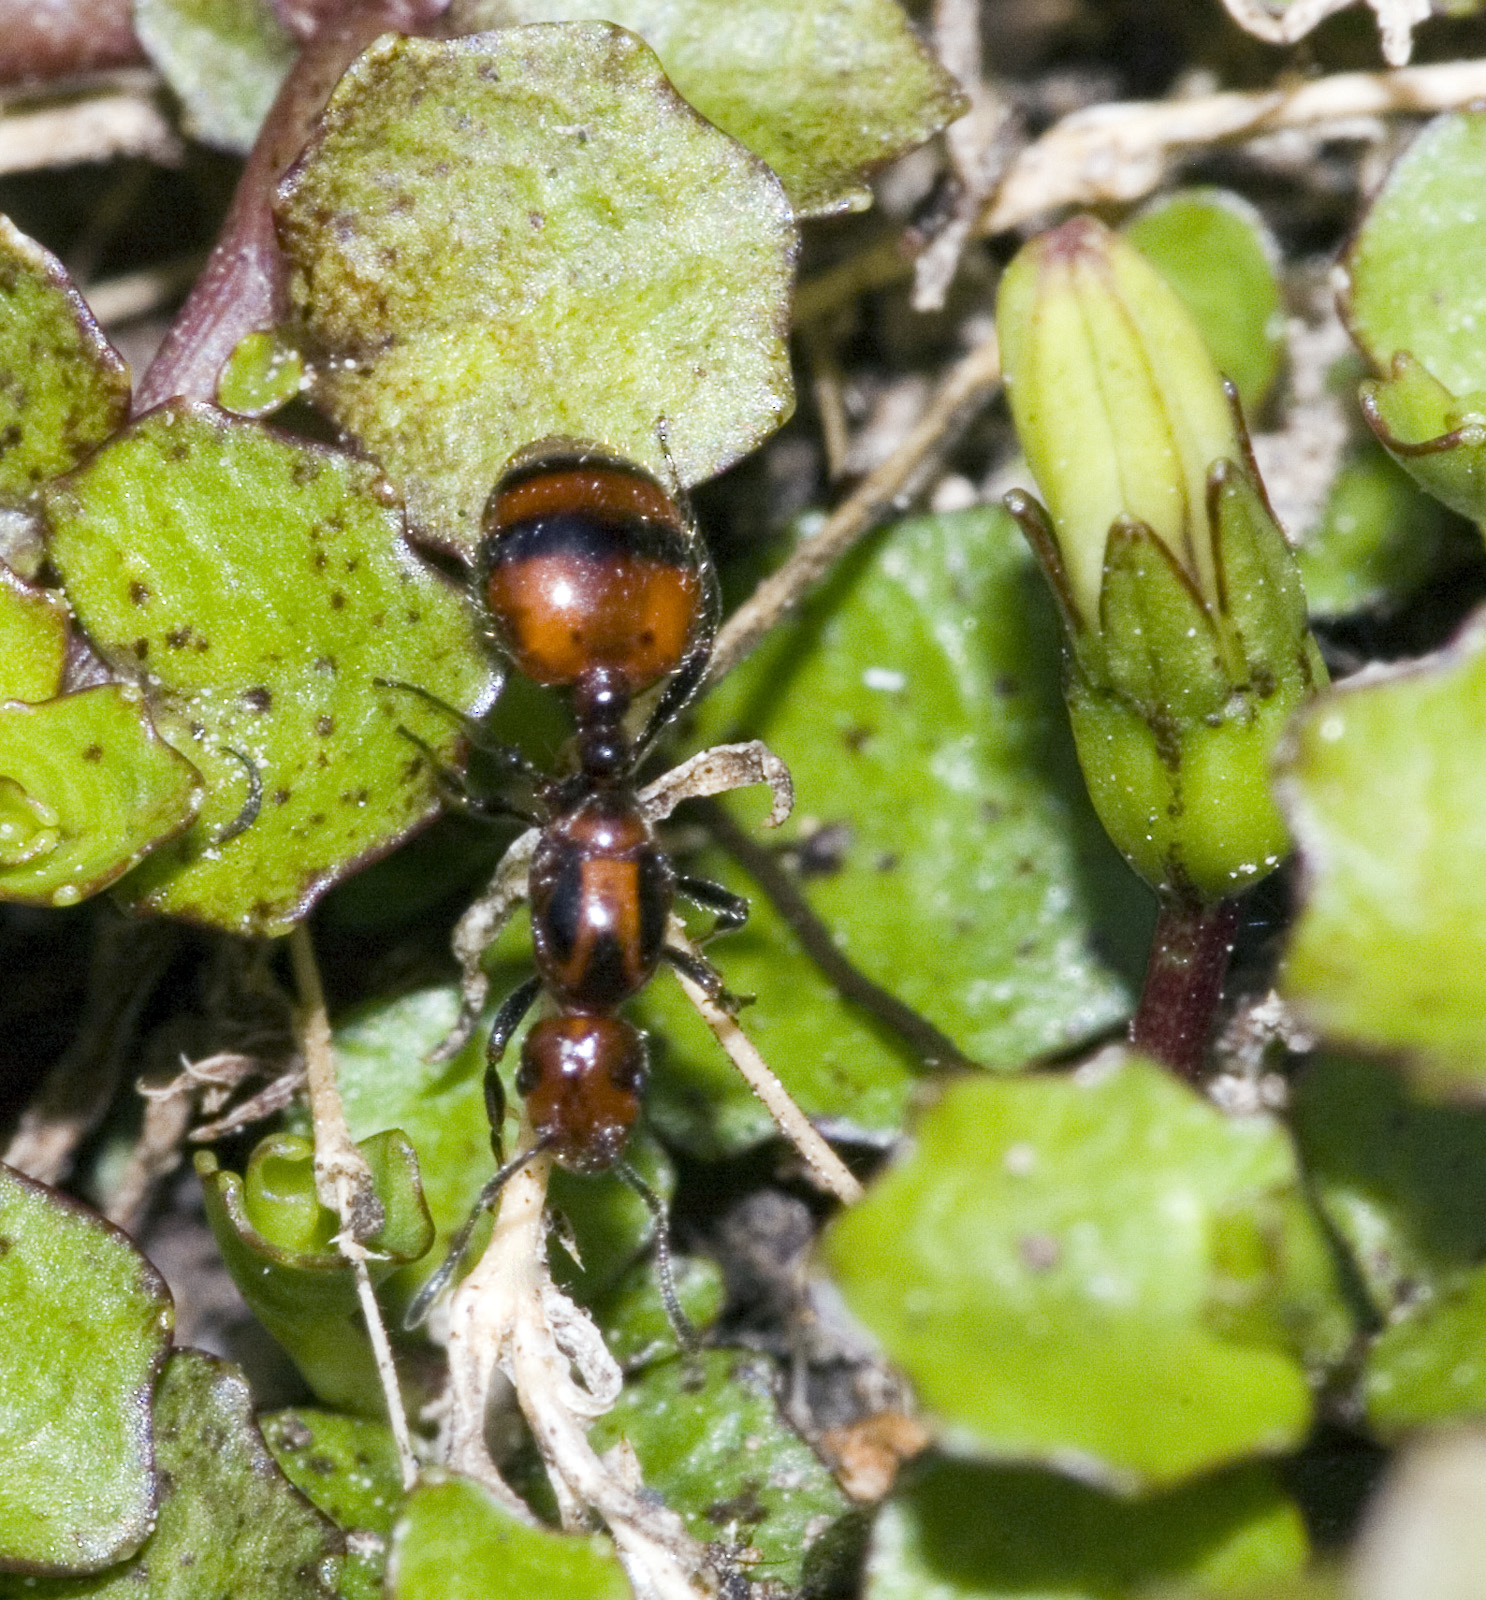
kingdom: Animalia
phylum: Arthropoda
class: Insecta
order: Hymenoptera
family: Formicidae
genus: Monomorium
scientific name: Monomorium antarcticum
